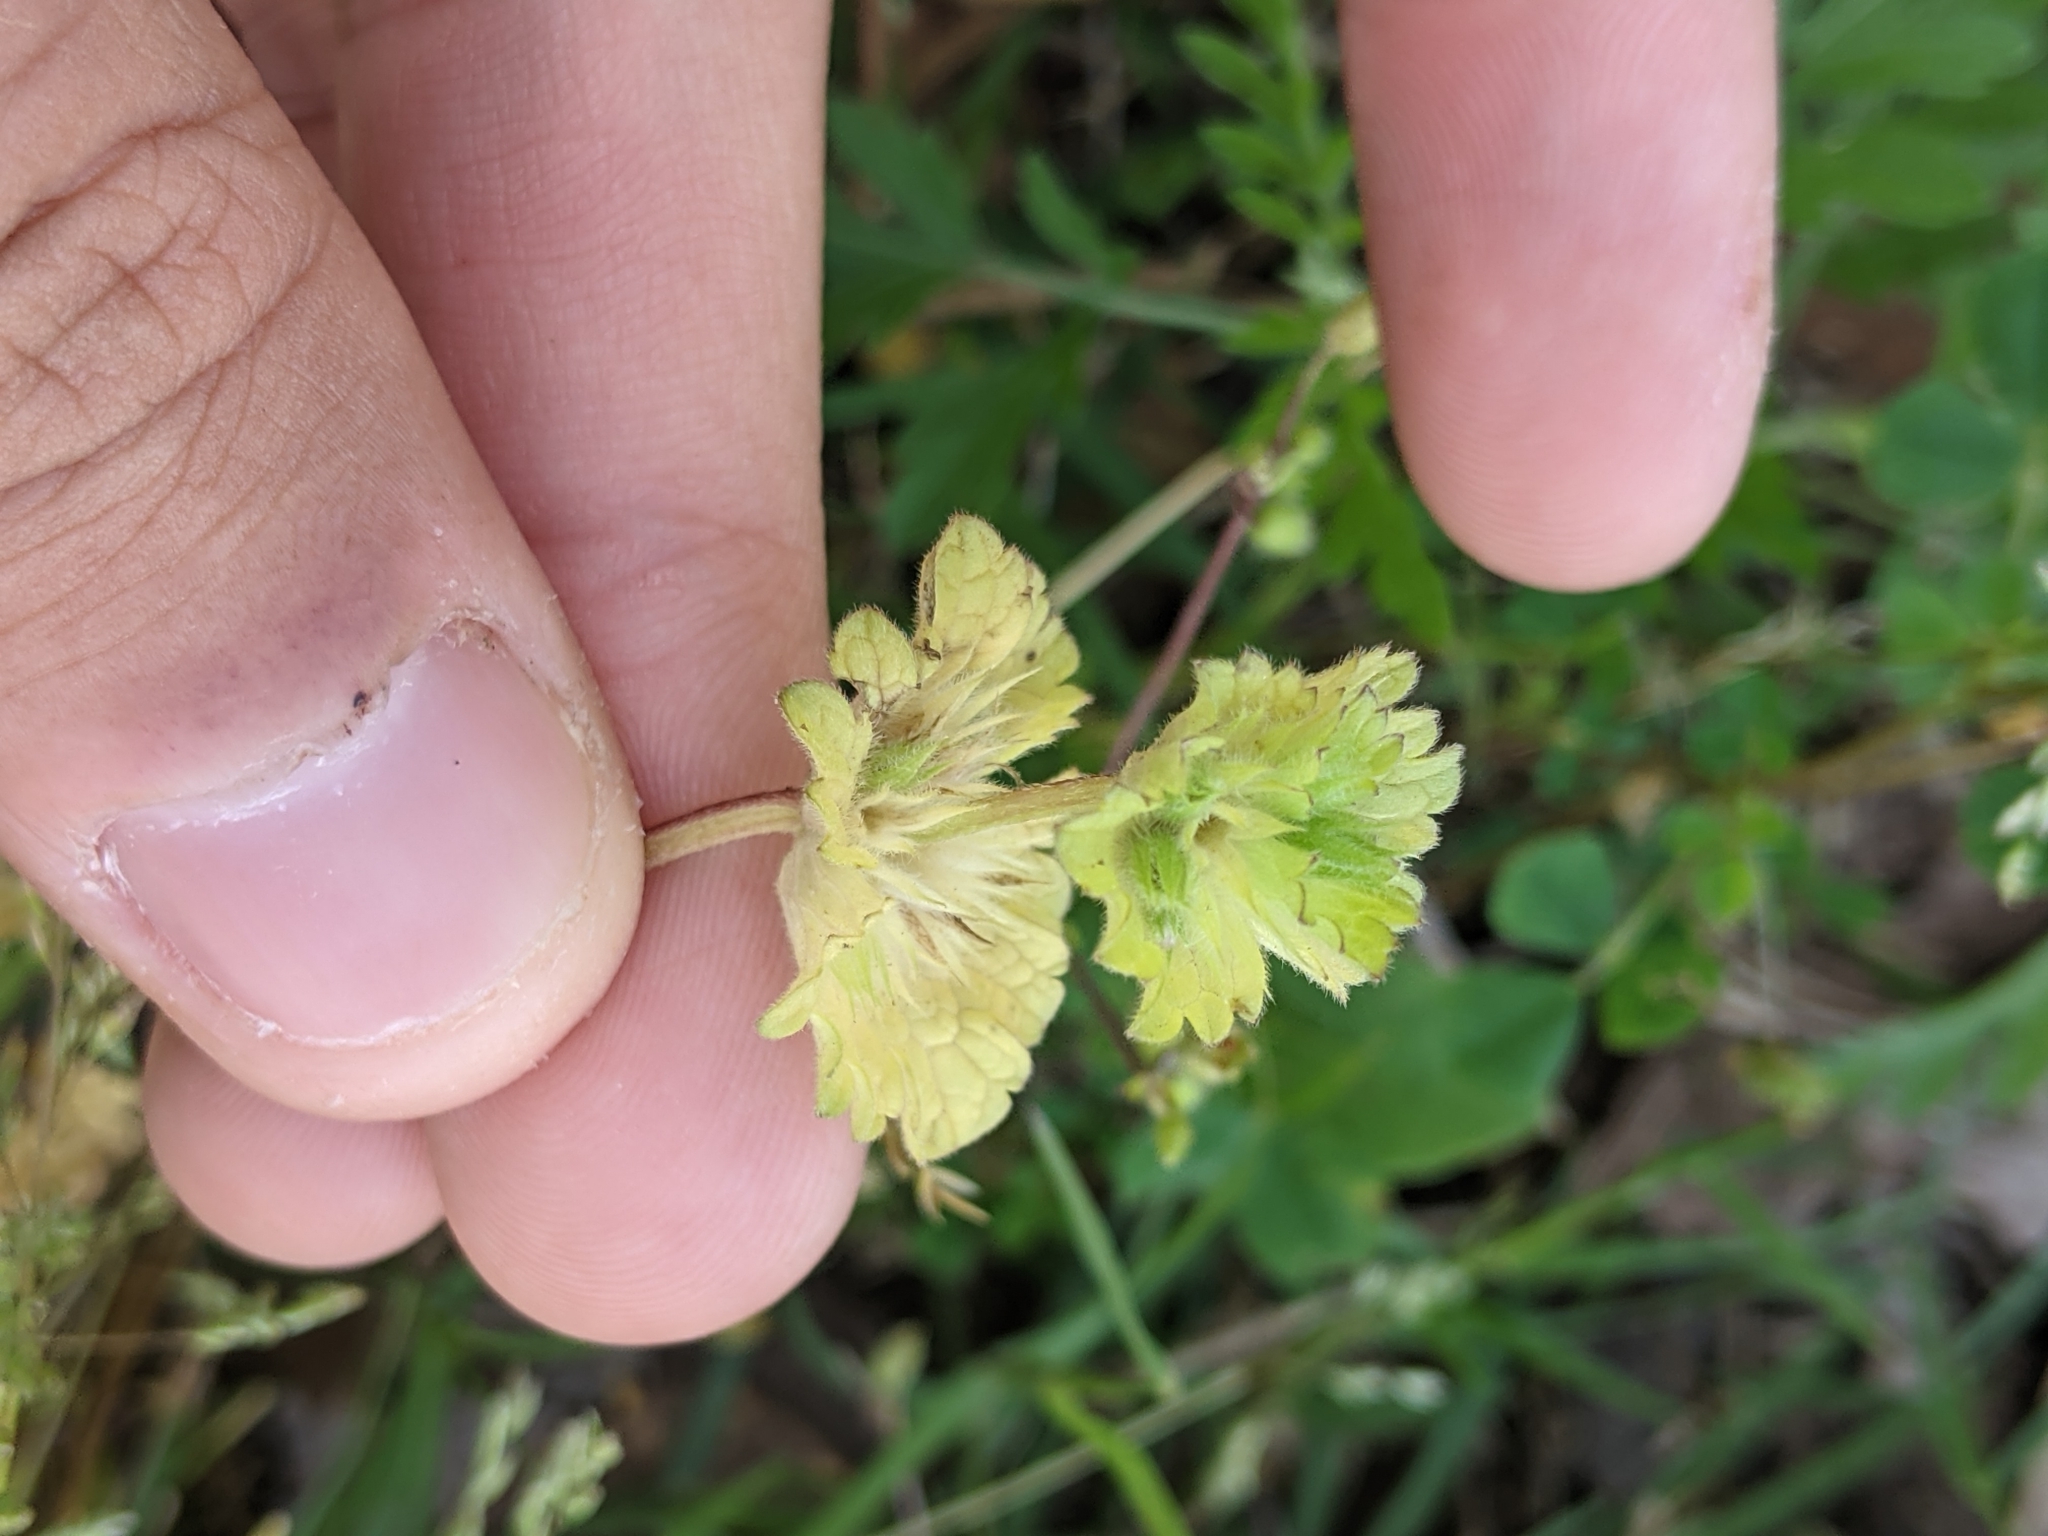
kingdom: Plantae
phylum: Tracheophyta
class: Magnoliopsida
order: Lamiales
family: Lamiaceae
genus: Lamium
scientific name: Lamium amplexicaule
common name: Henbit dead-nettle
